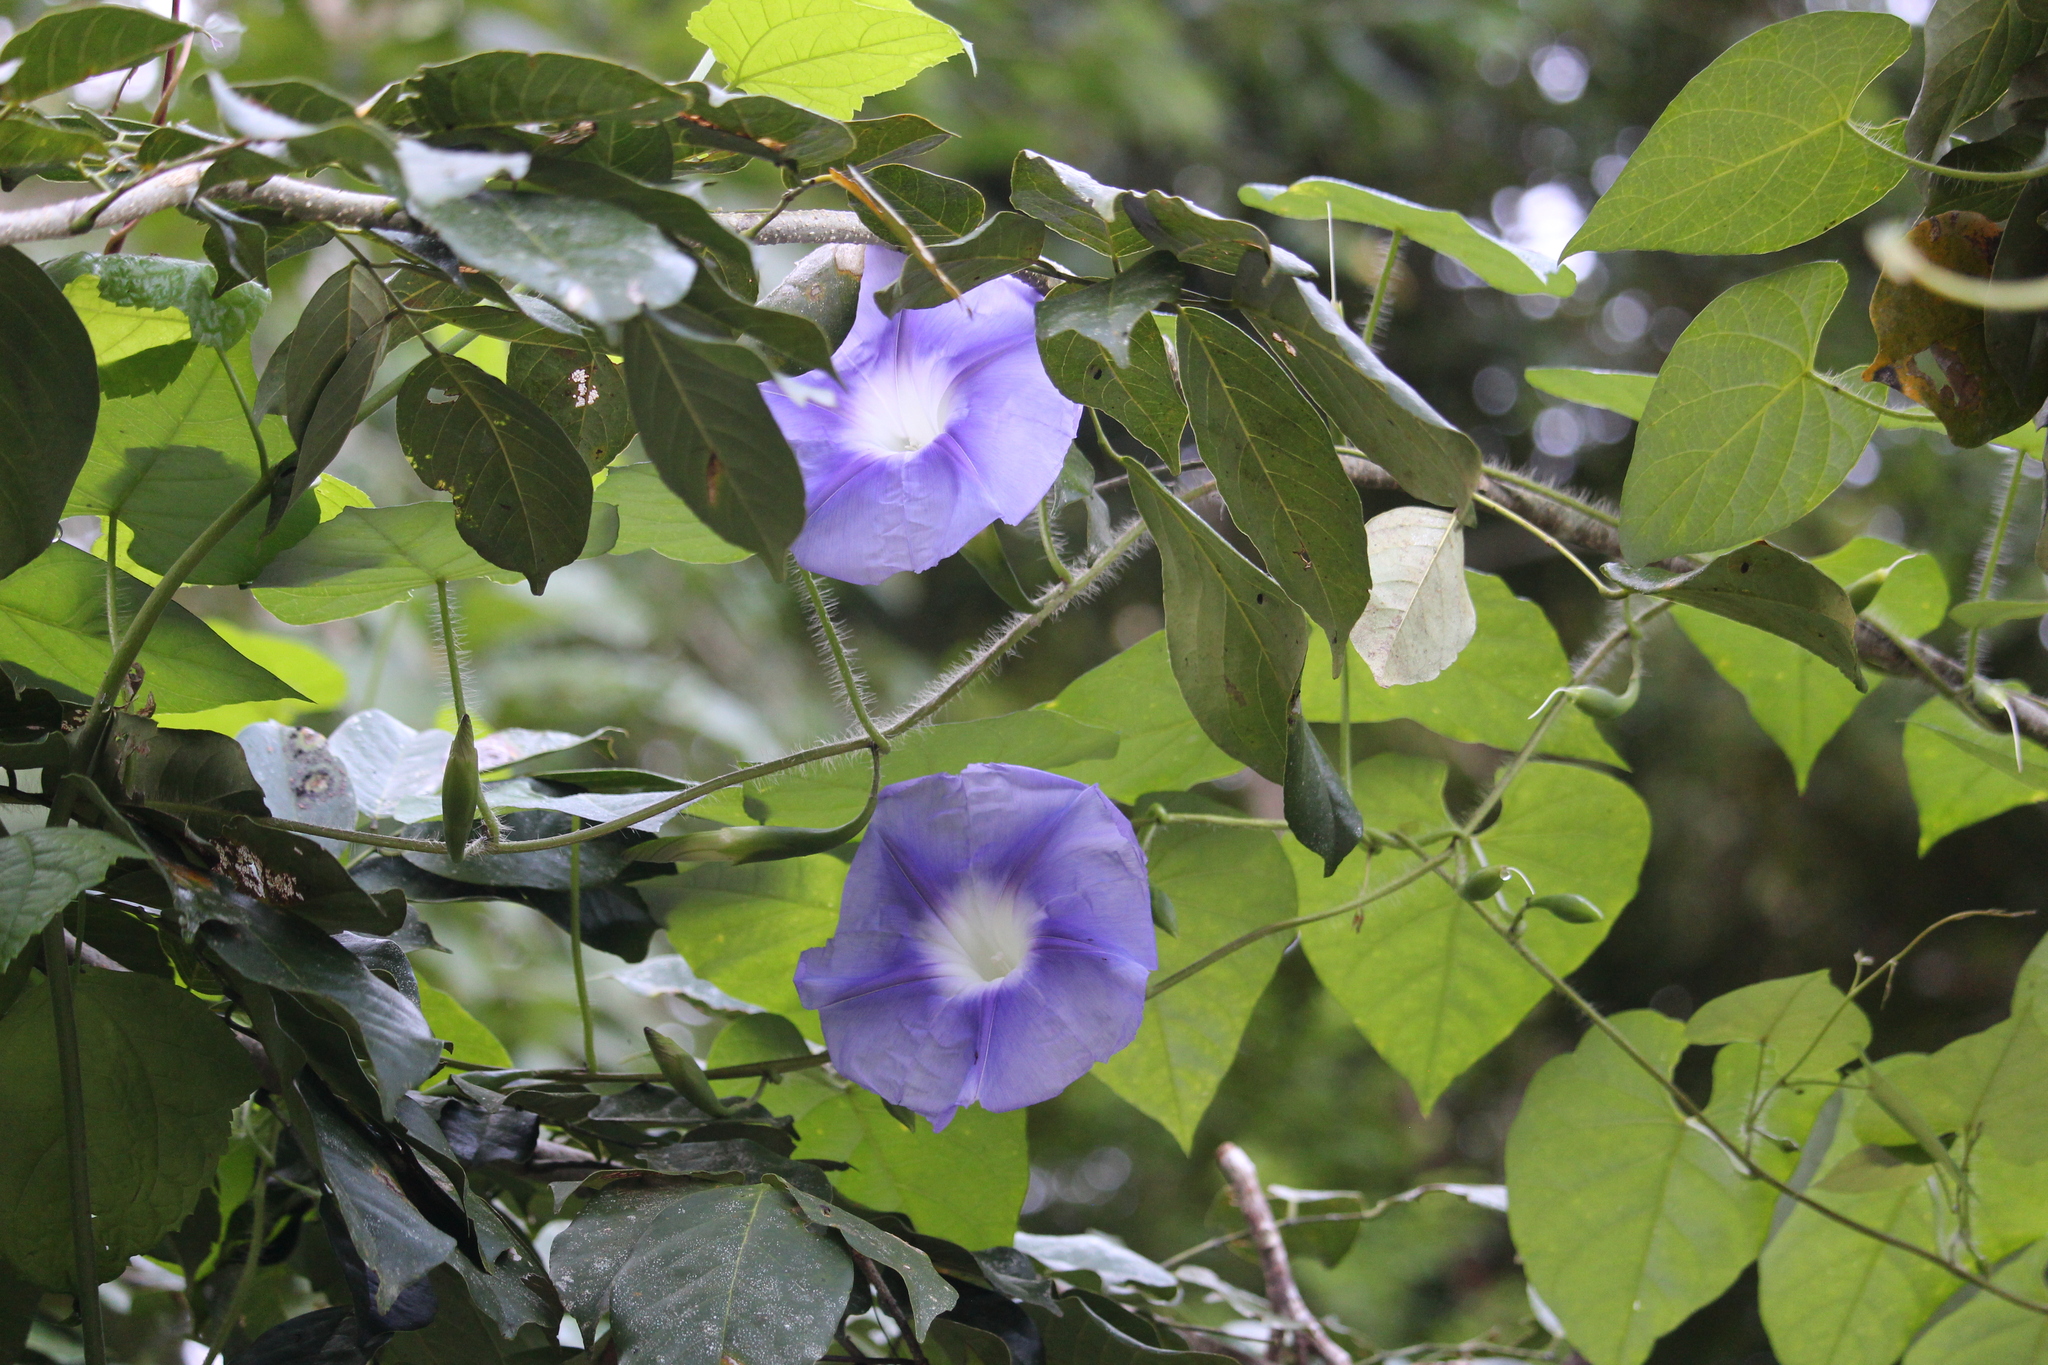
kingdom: Plantae
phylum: Tracheophyta
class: Magnoliopsida
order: Solanales
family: Convolvulaceae
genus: Ipomoea
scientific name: Ipomoea clavata
